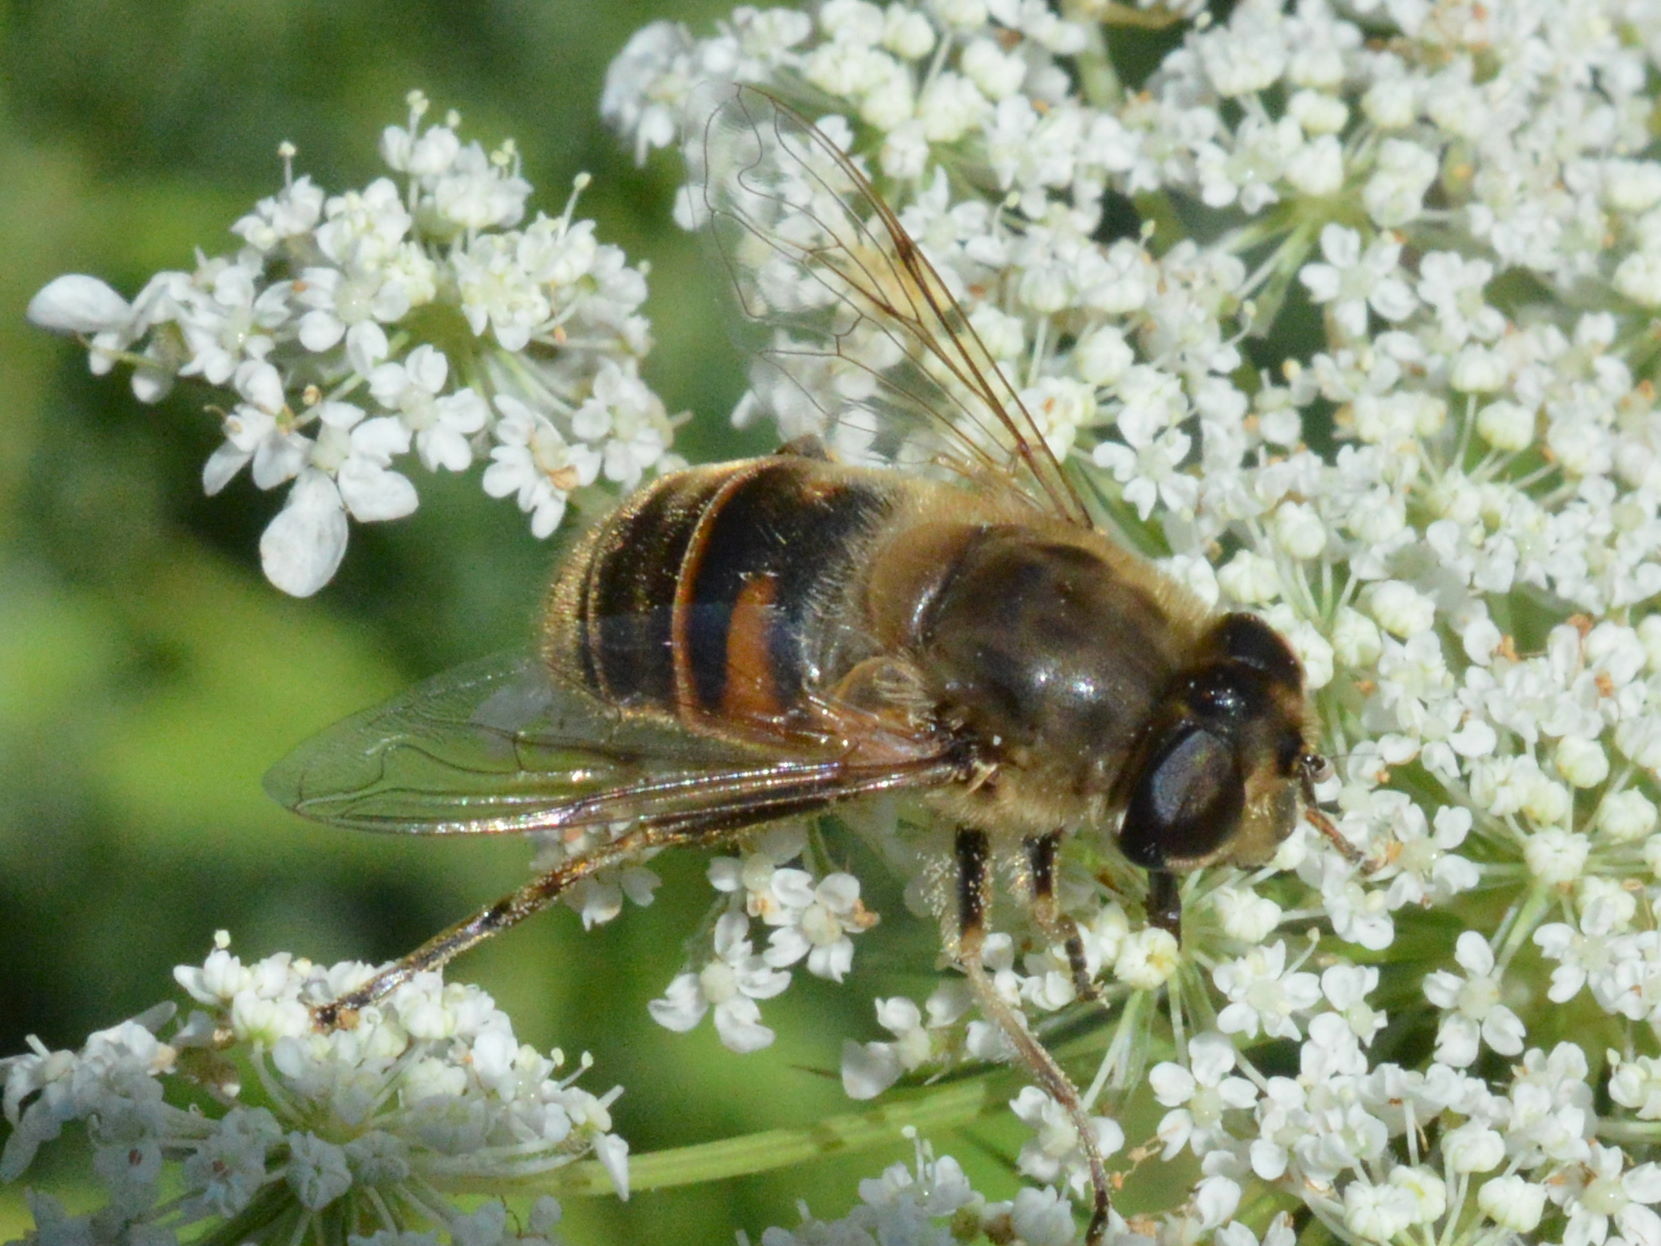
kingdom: Animalia
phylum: Arthropoda
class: Insecta
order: Diptera
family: Syrphidae
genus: Eristalis
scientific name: Eristalis tenax
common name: Drone fly
